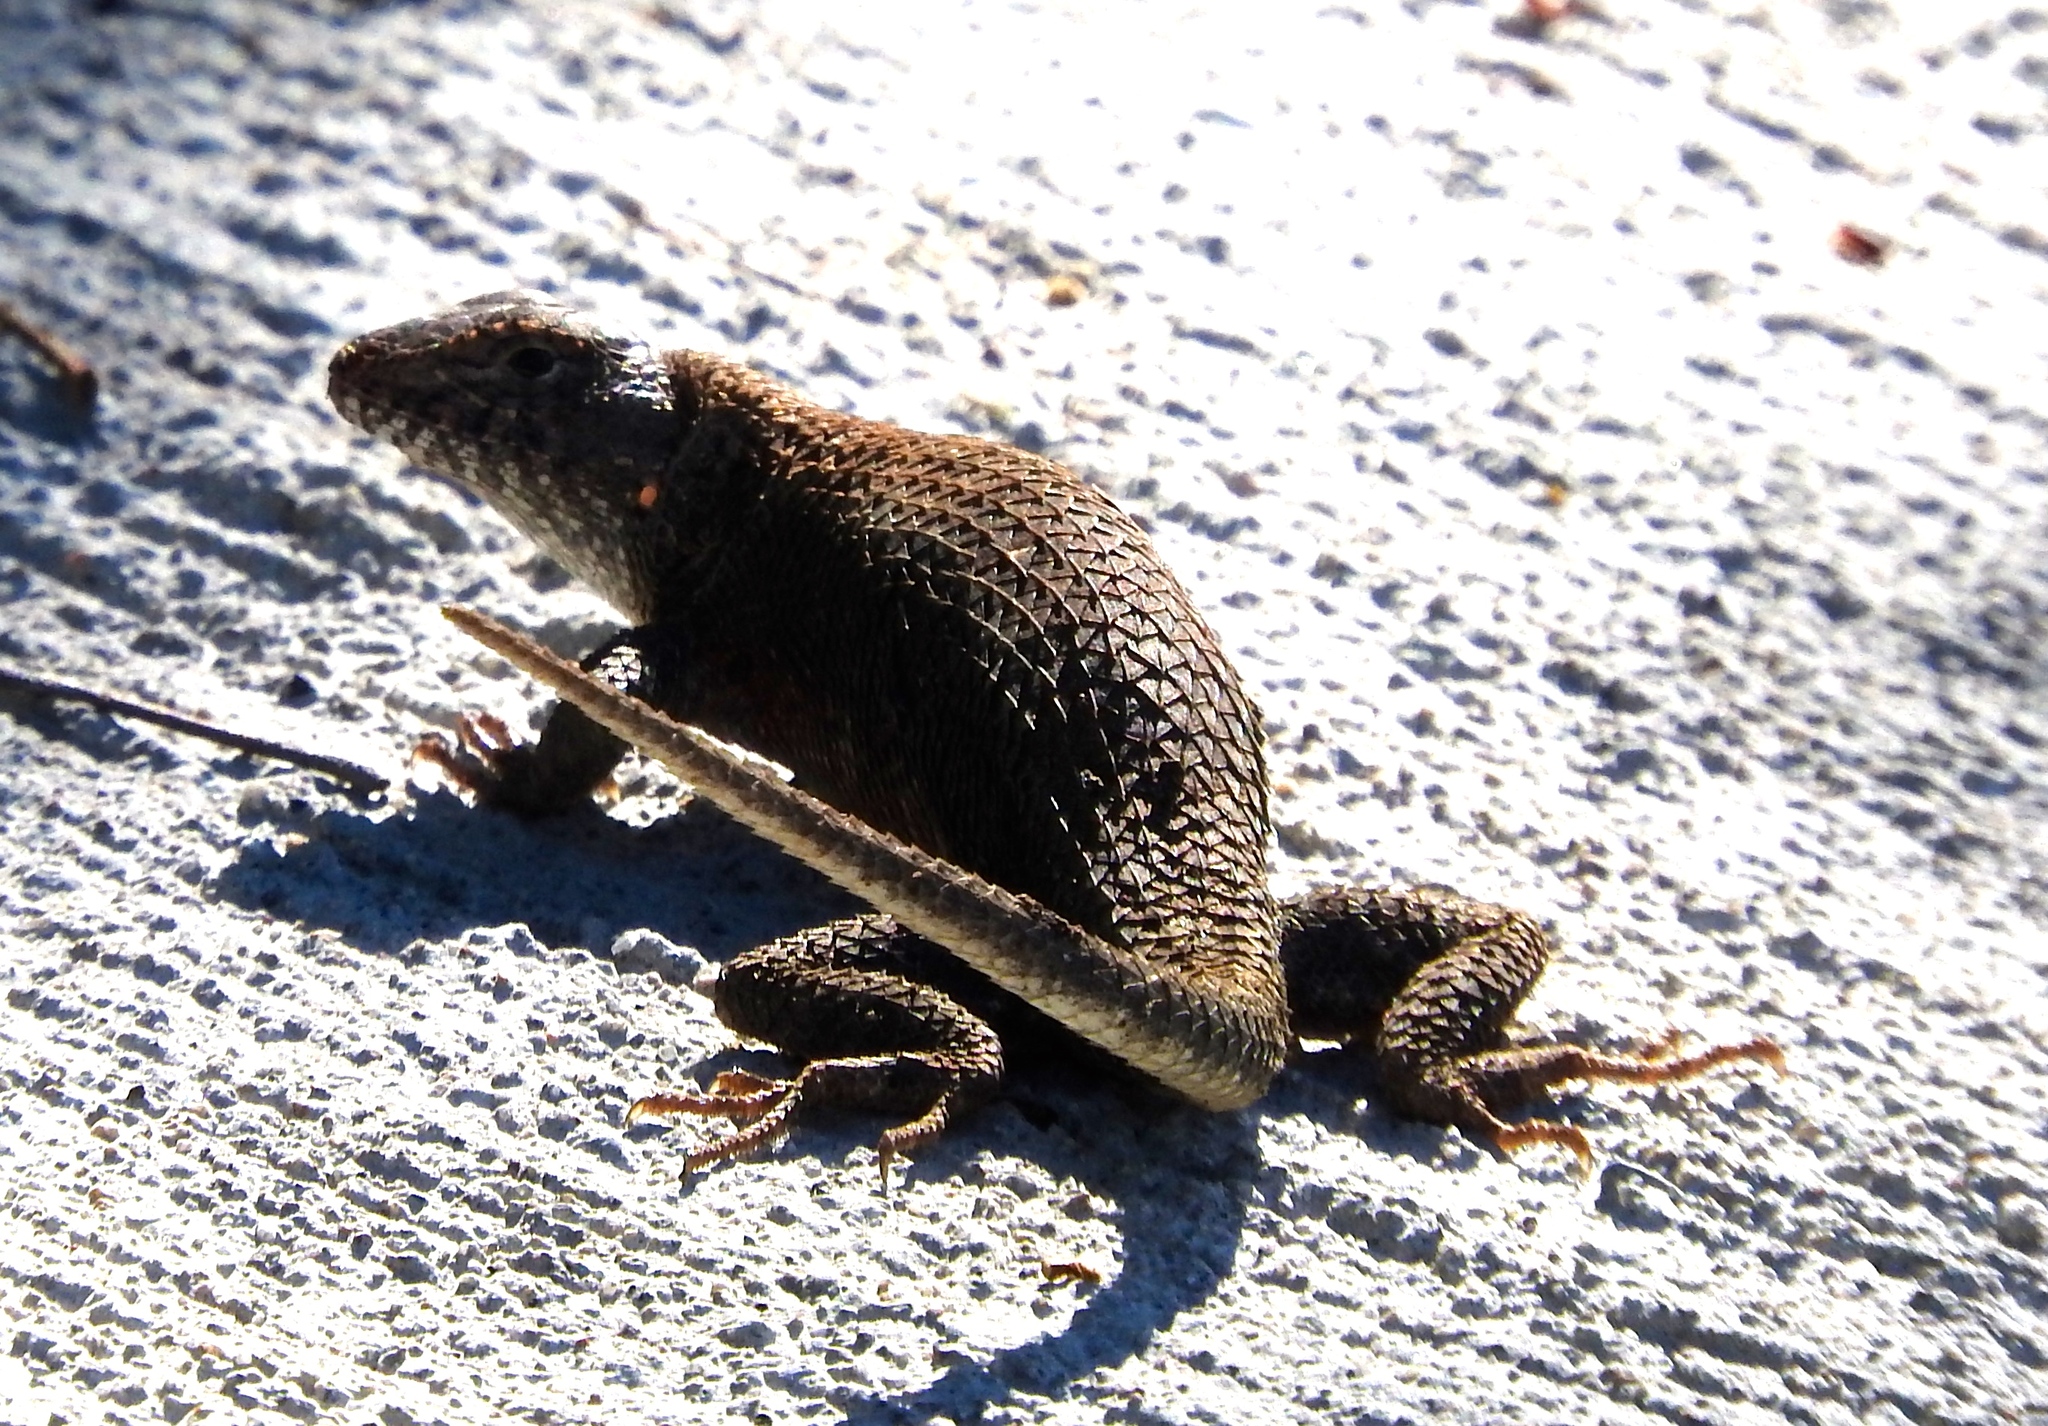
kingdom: Animalia
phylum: Chordata
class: Squamata
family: Phrynosomatidae
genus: Sceloporus
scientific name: Sceloporus nelsoni
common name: Nelson's spiny lizard
